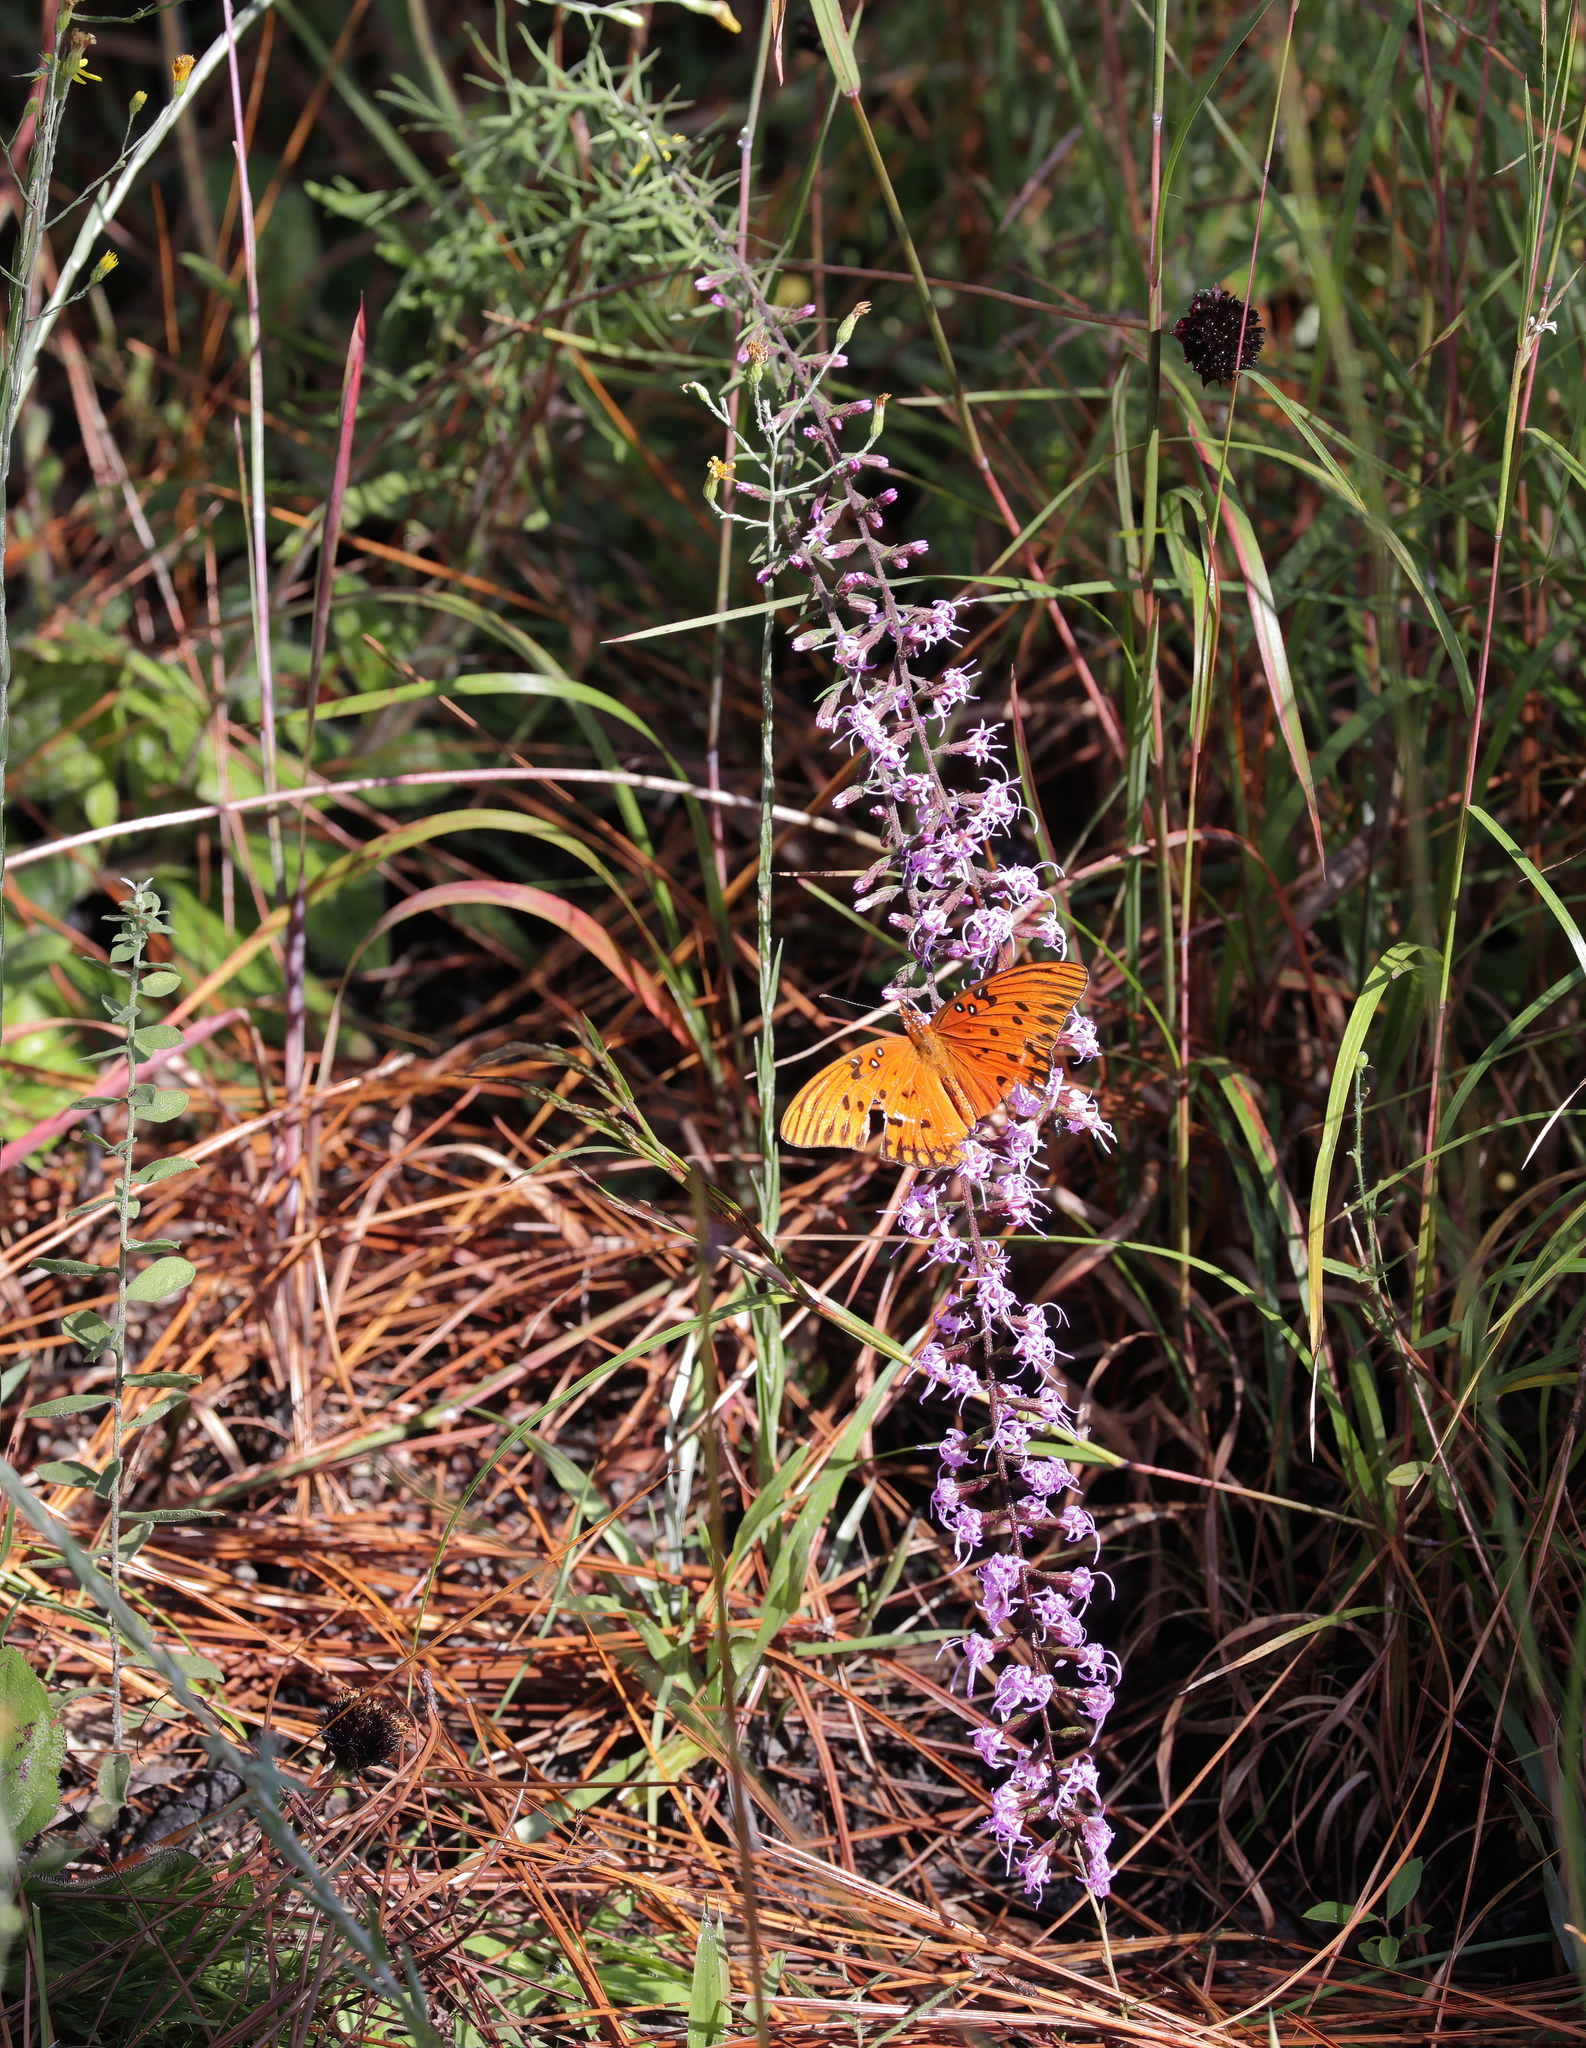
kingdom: Animalia
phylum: Arthropoda
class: Insecta
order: Lepidoptera
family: Nymphalidae
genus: Dione
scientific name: Dione vanillae
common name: Gulf fritillary
